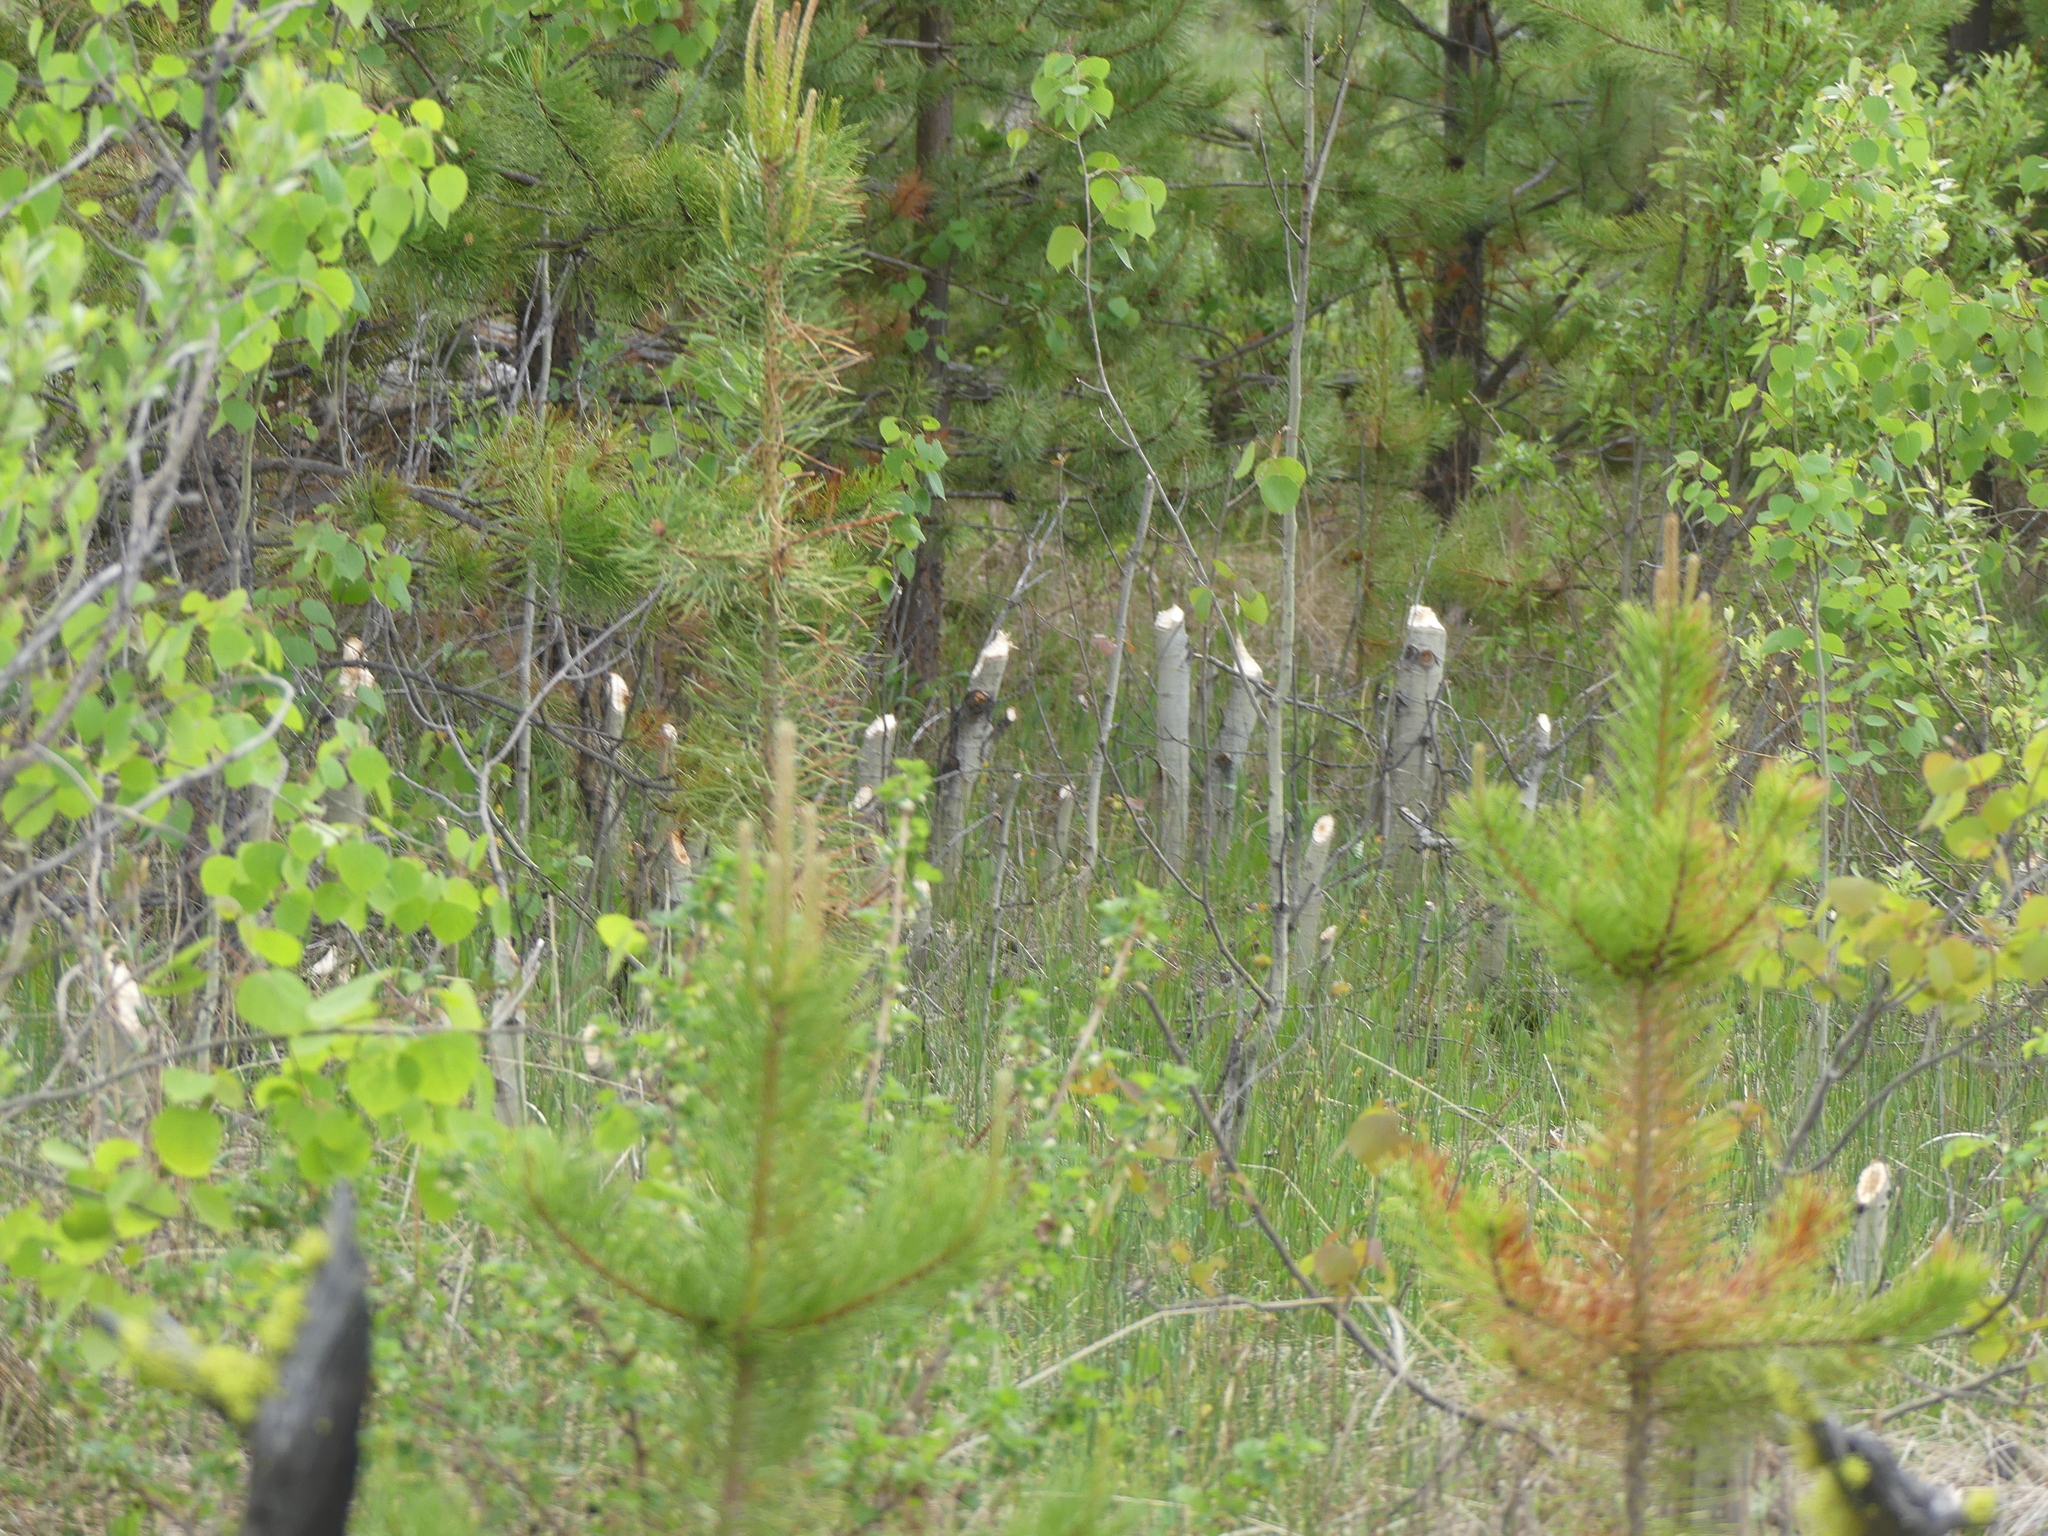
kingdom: Animalia
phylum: Chordata
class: Mammalia
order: Rodentia
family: Castoridae
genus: Castor
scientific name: Castor canadensis
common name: American beaver
